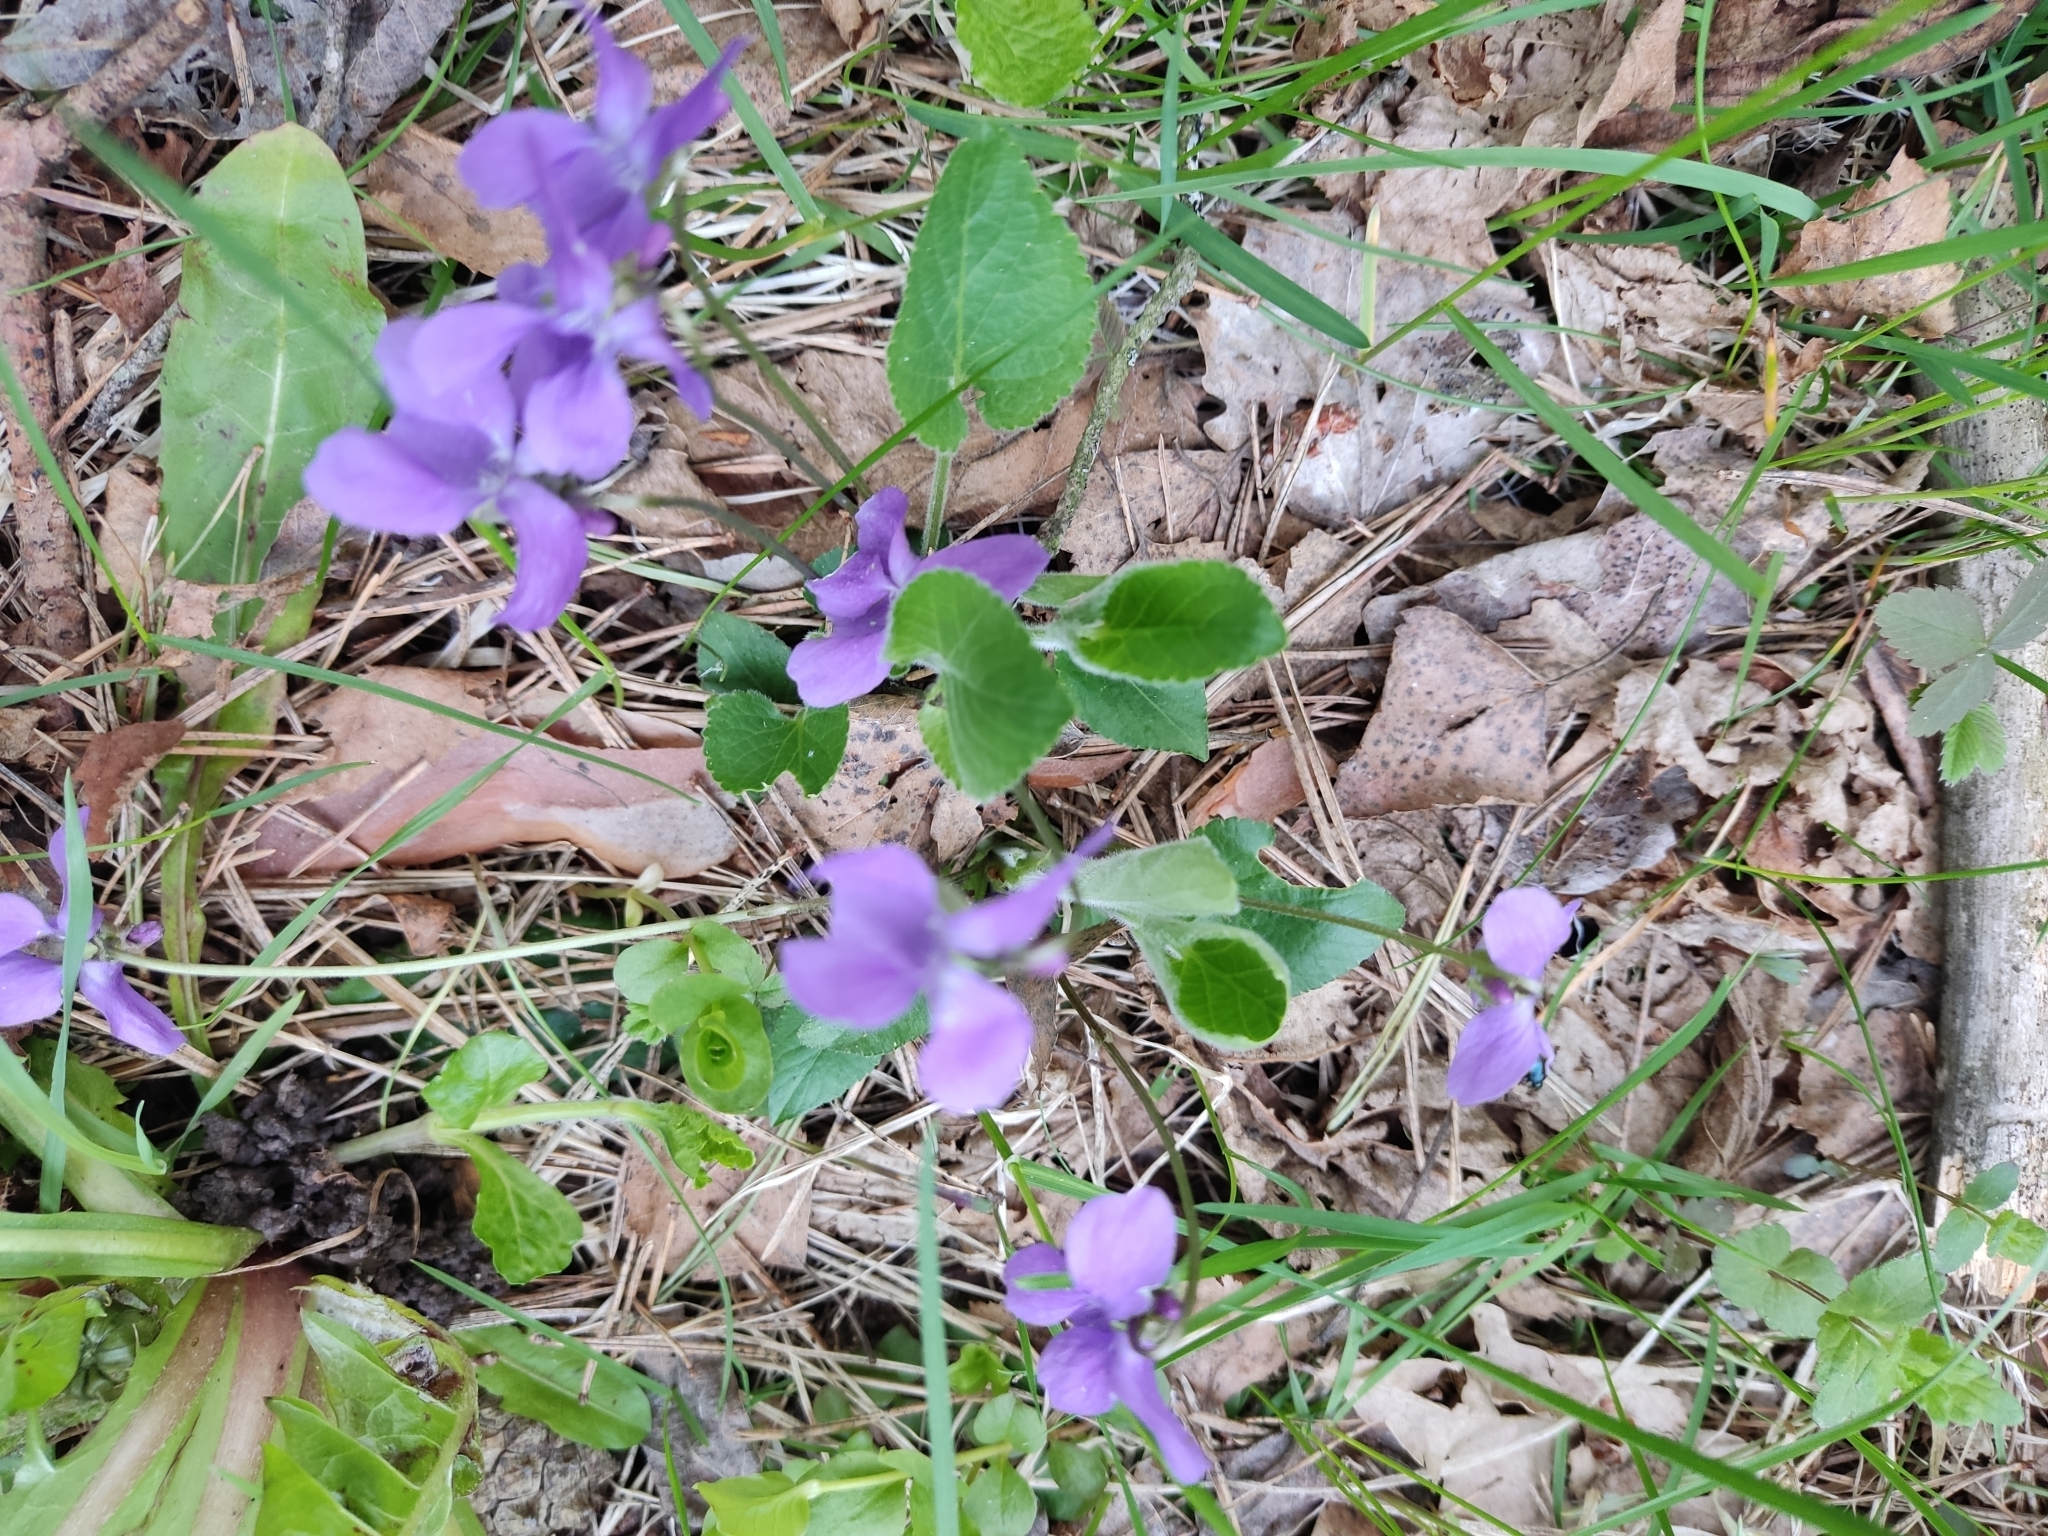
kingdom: Plantae
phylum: Tracheophyta
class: Magnoliopsida
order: Malpighiales
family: Violaceae
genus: Viola
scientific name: Viola hirta
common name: Hairy violet
